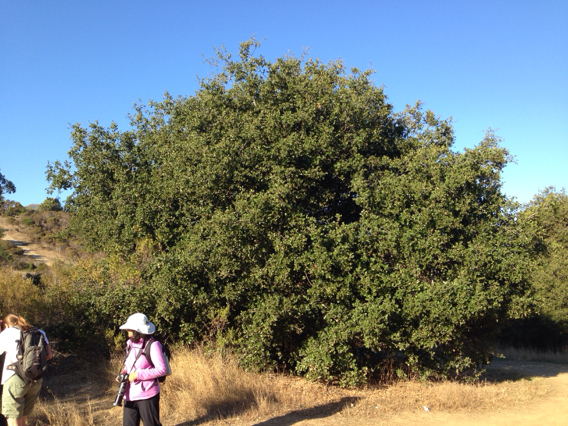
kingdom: Plantae
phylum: Tracheophyta
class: Magnoliopsida
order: Fagales
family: Fagaceae
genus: Quercus
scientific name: Quercus agrifolia
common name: California live oak
